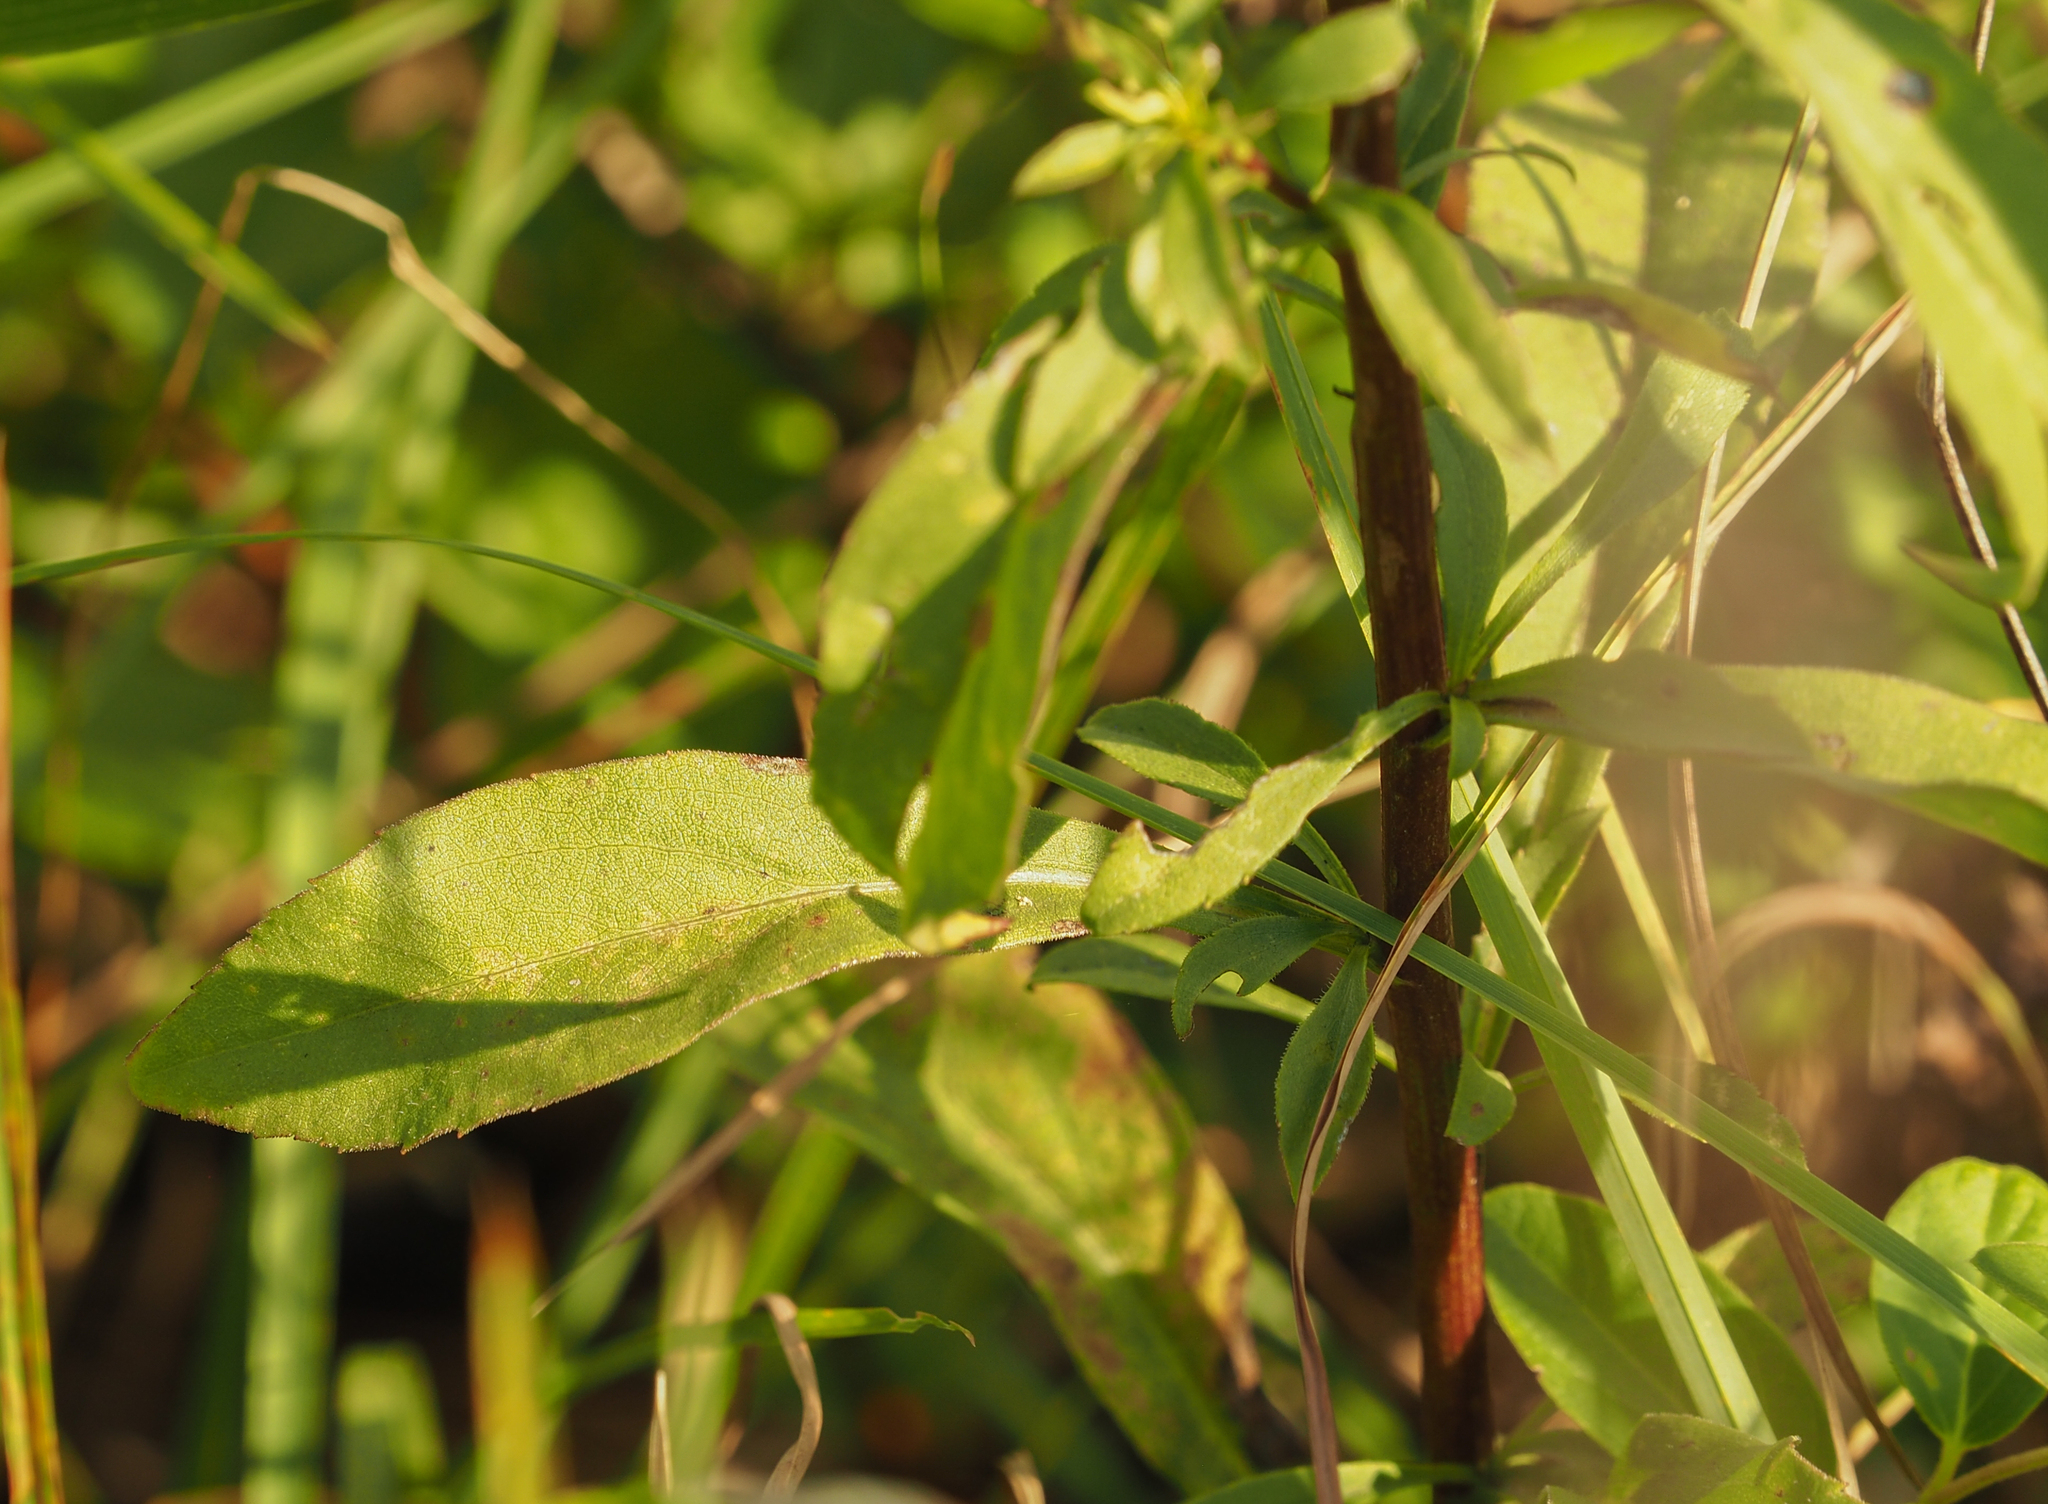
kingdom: Plantae
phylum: Tracheophyta
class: Magnoliopsida
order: Asterales
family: Asteraceae
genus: Solidago
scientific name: Solidago juncea
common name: Early goldenrod
